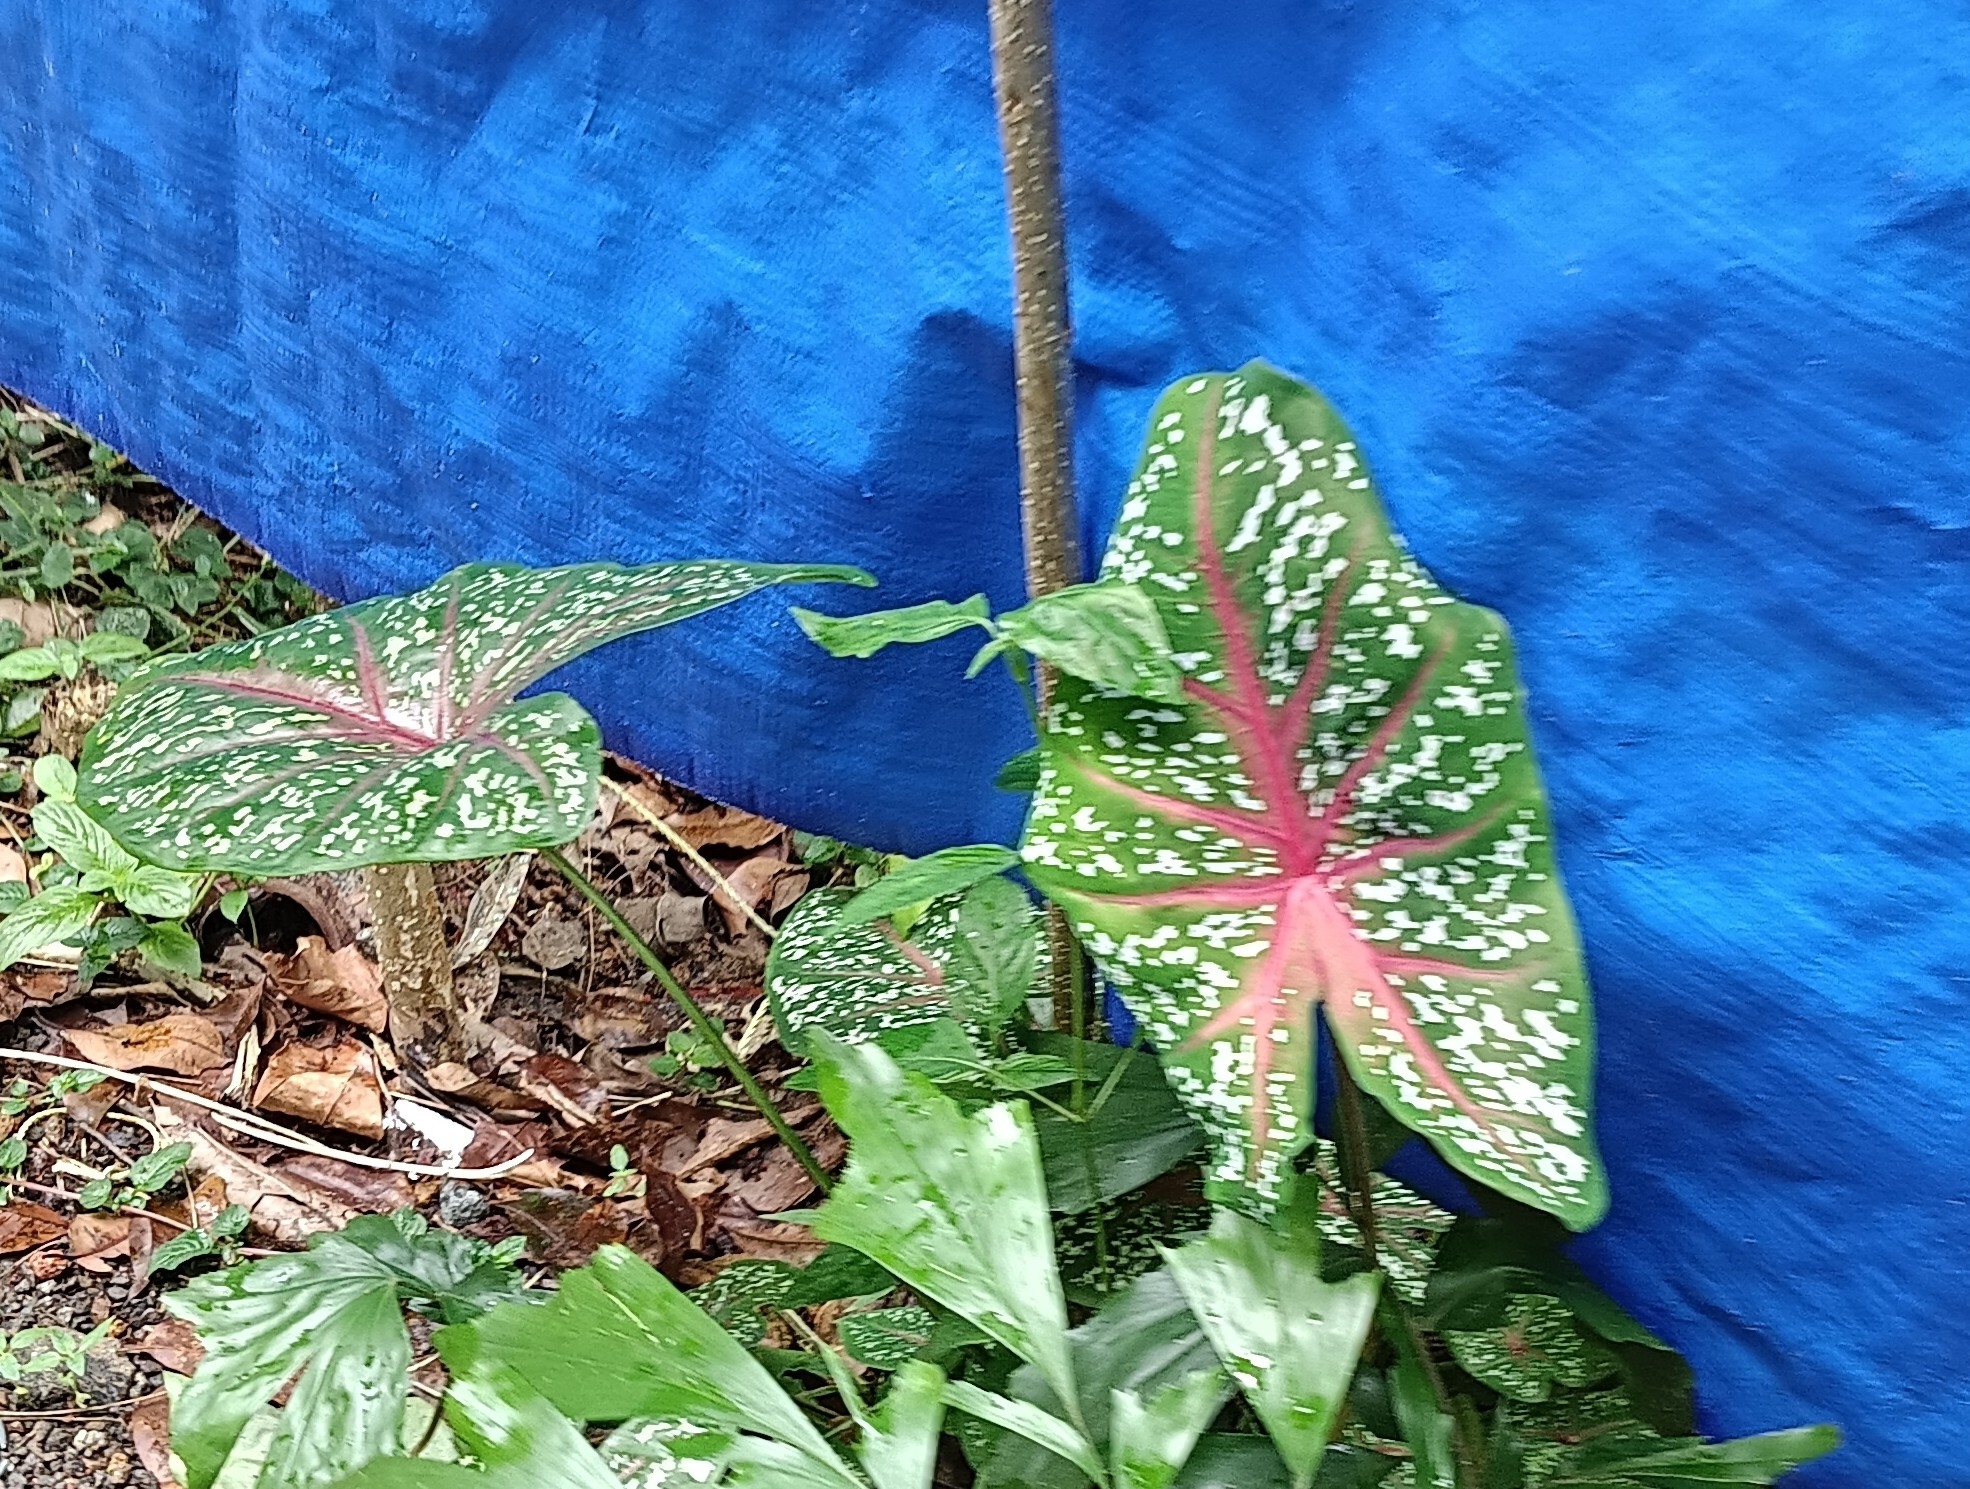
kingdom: Plantae
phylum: Tracheophyta
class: Liliopsida
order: Alismatales
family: Araceae
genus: Caladium
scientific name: Caladium bicolor
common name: Artist's pallet
